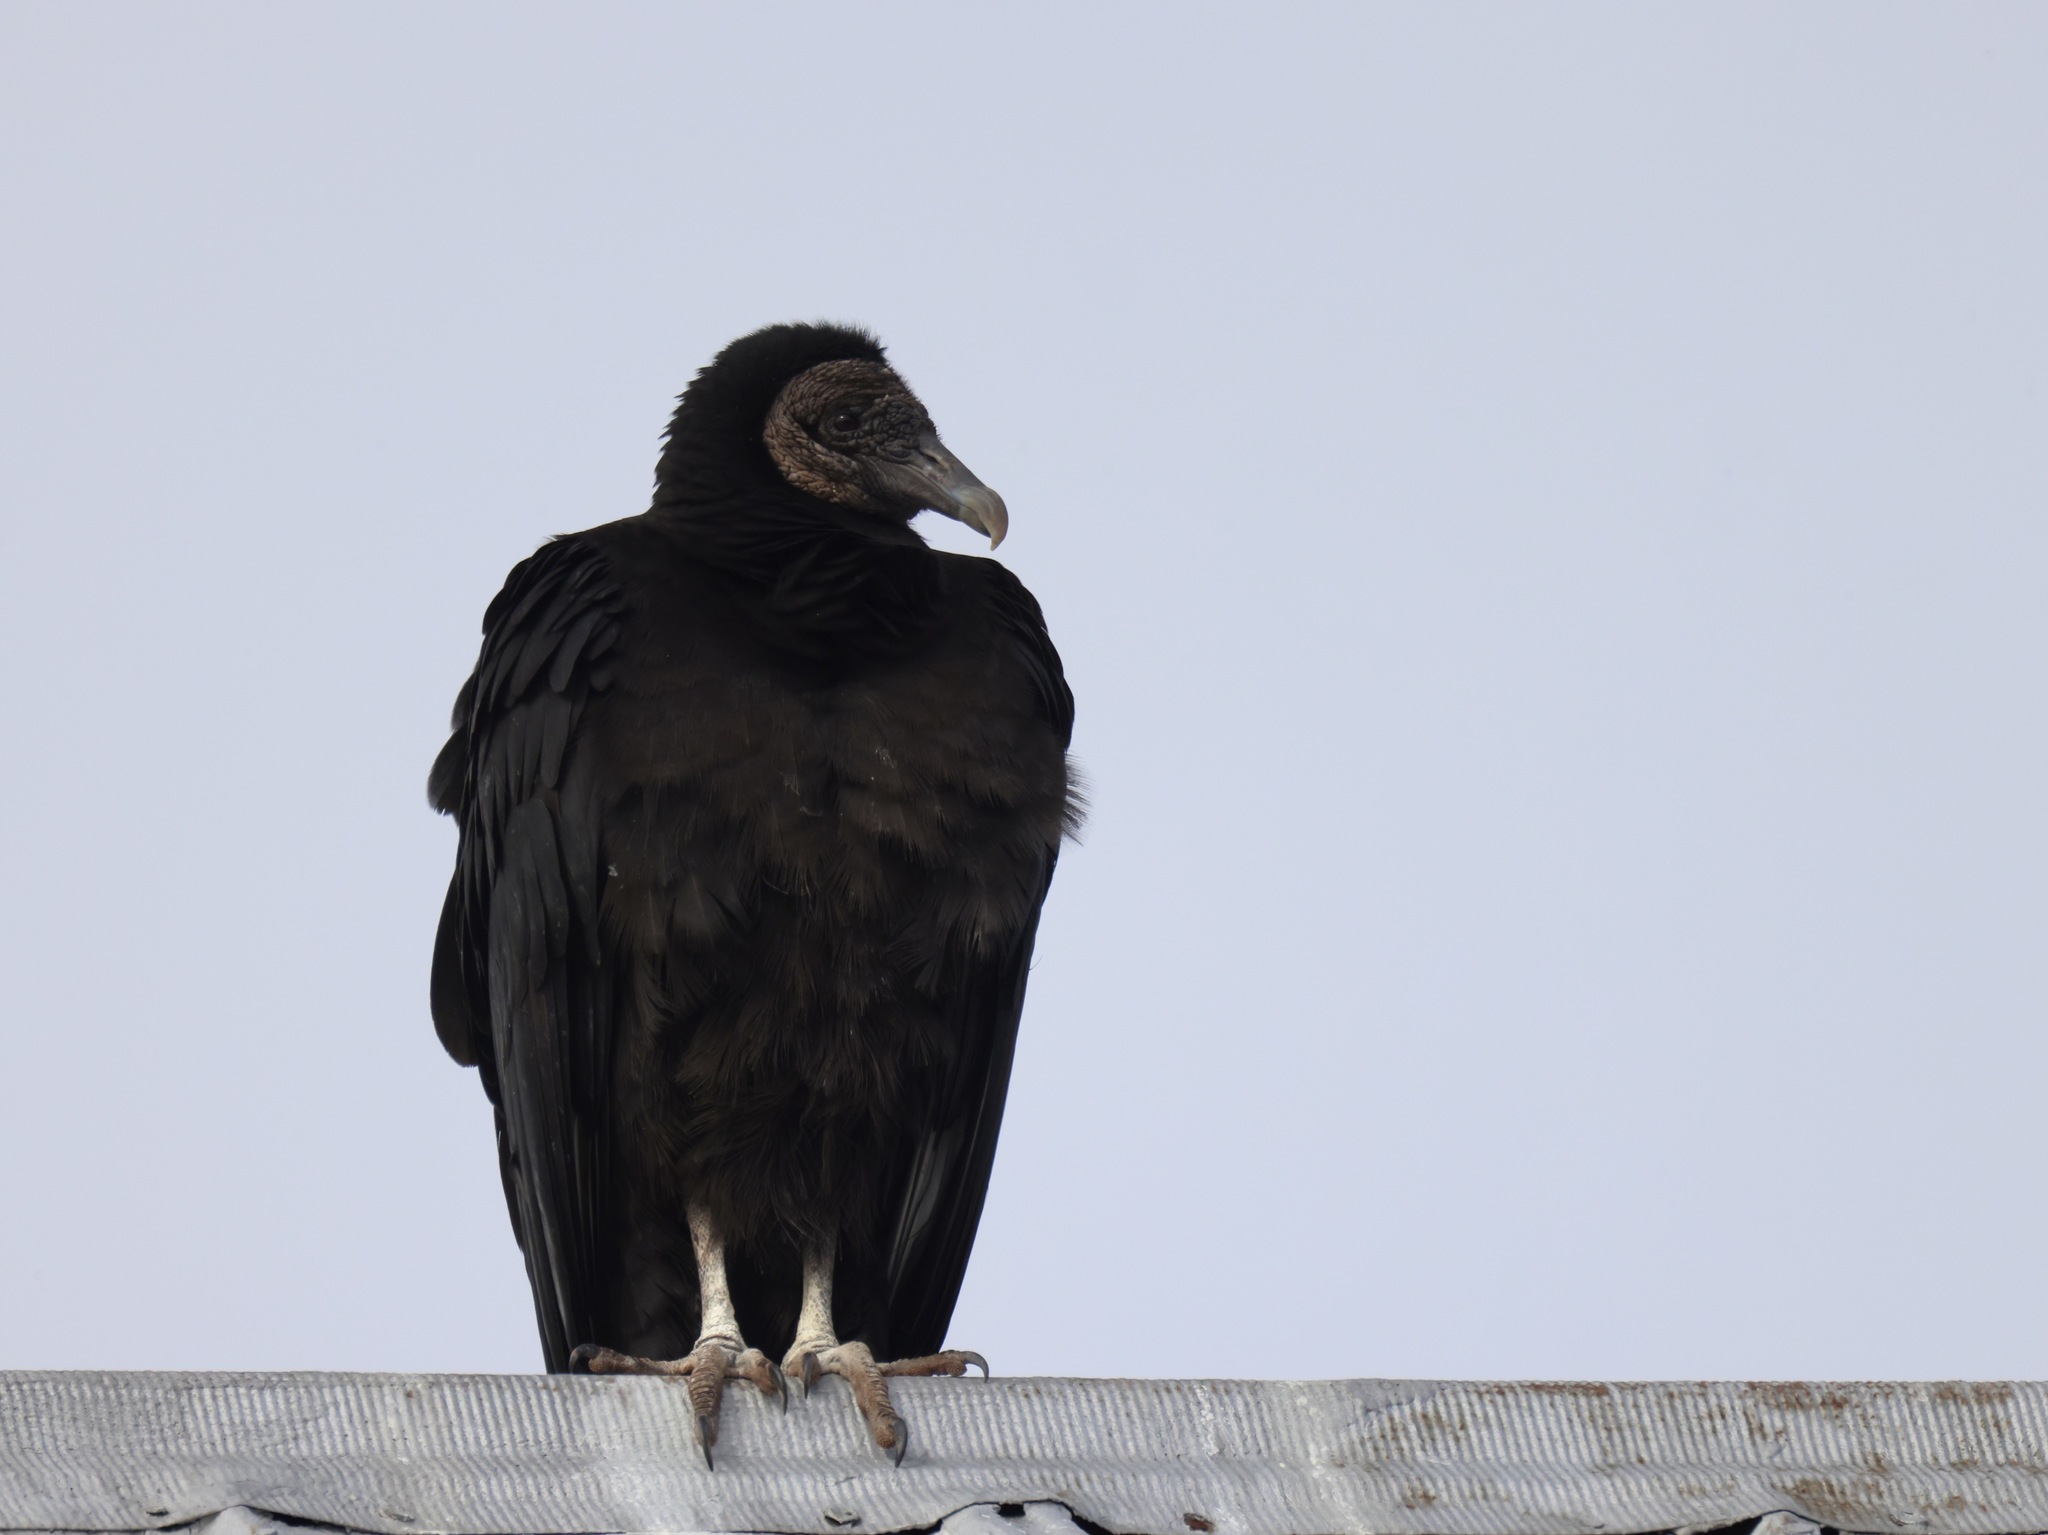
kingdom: Animalia
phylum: Chordata
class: Aves
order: Accipitriformes
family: Cathartidae
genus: Coragyps
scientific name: Coragyps atratus
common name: Black vulture
